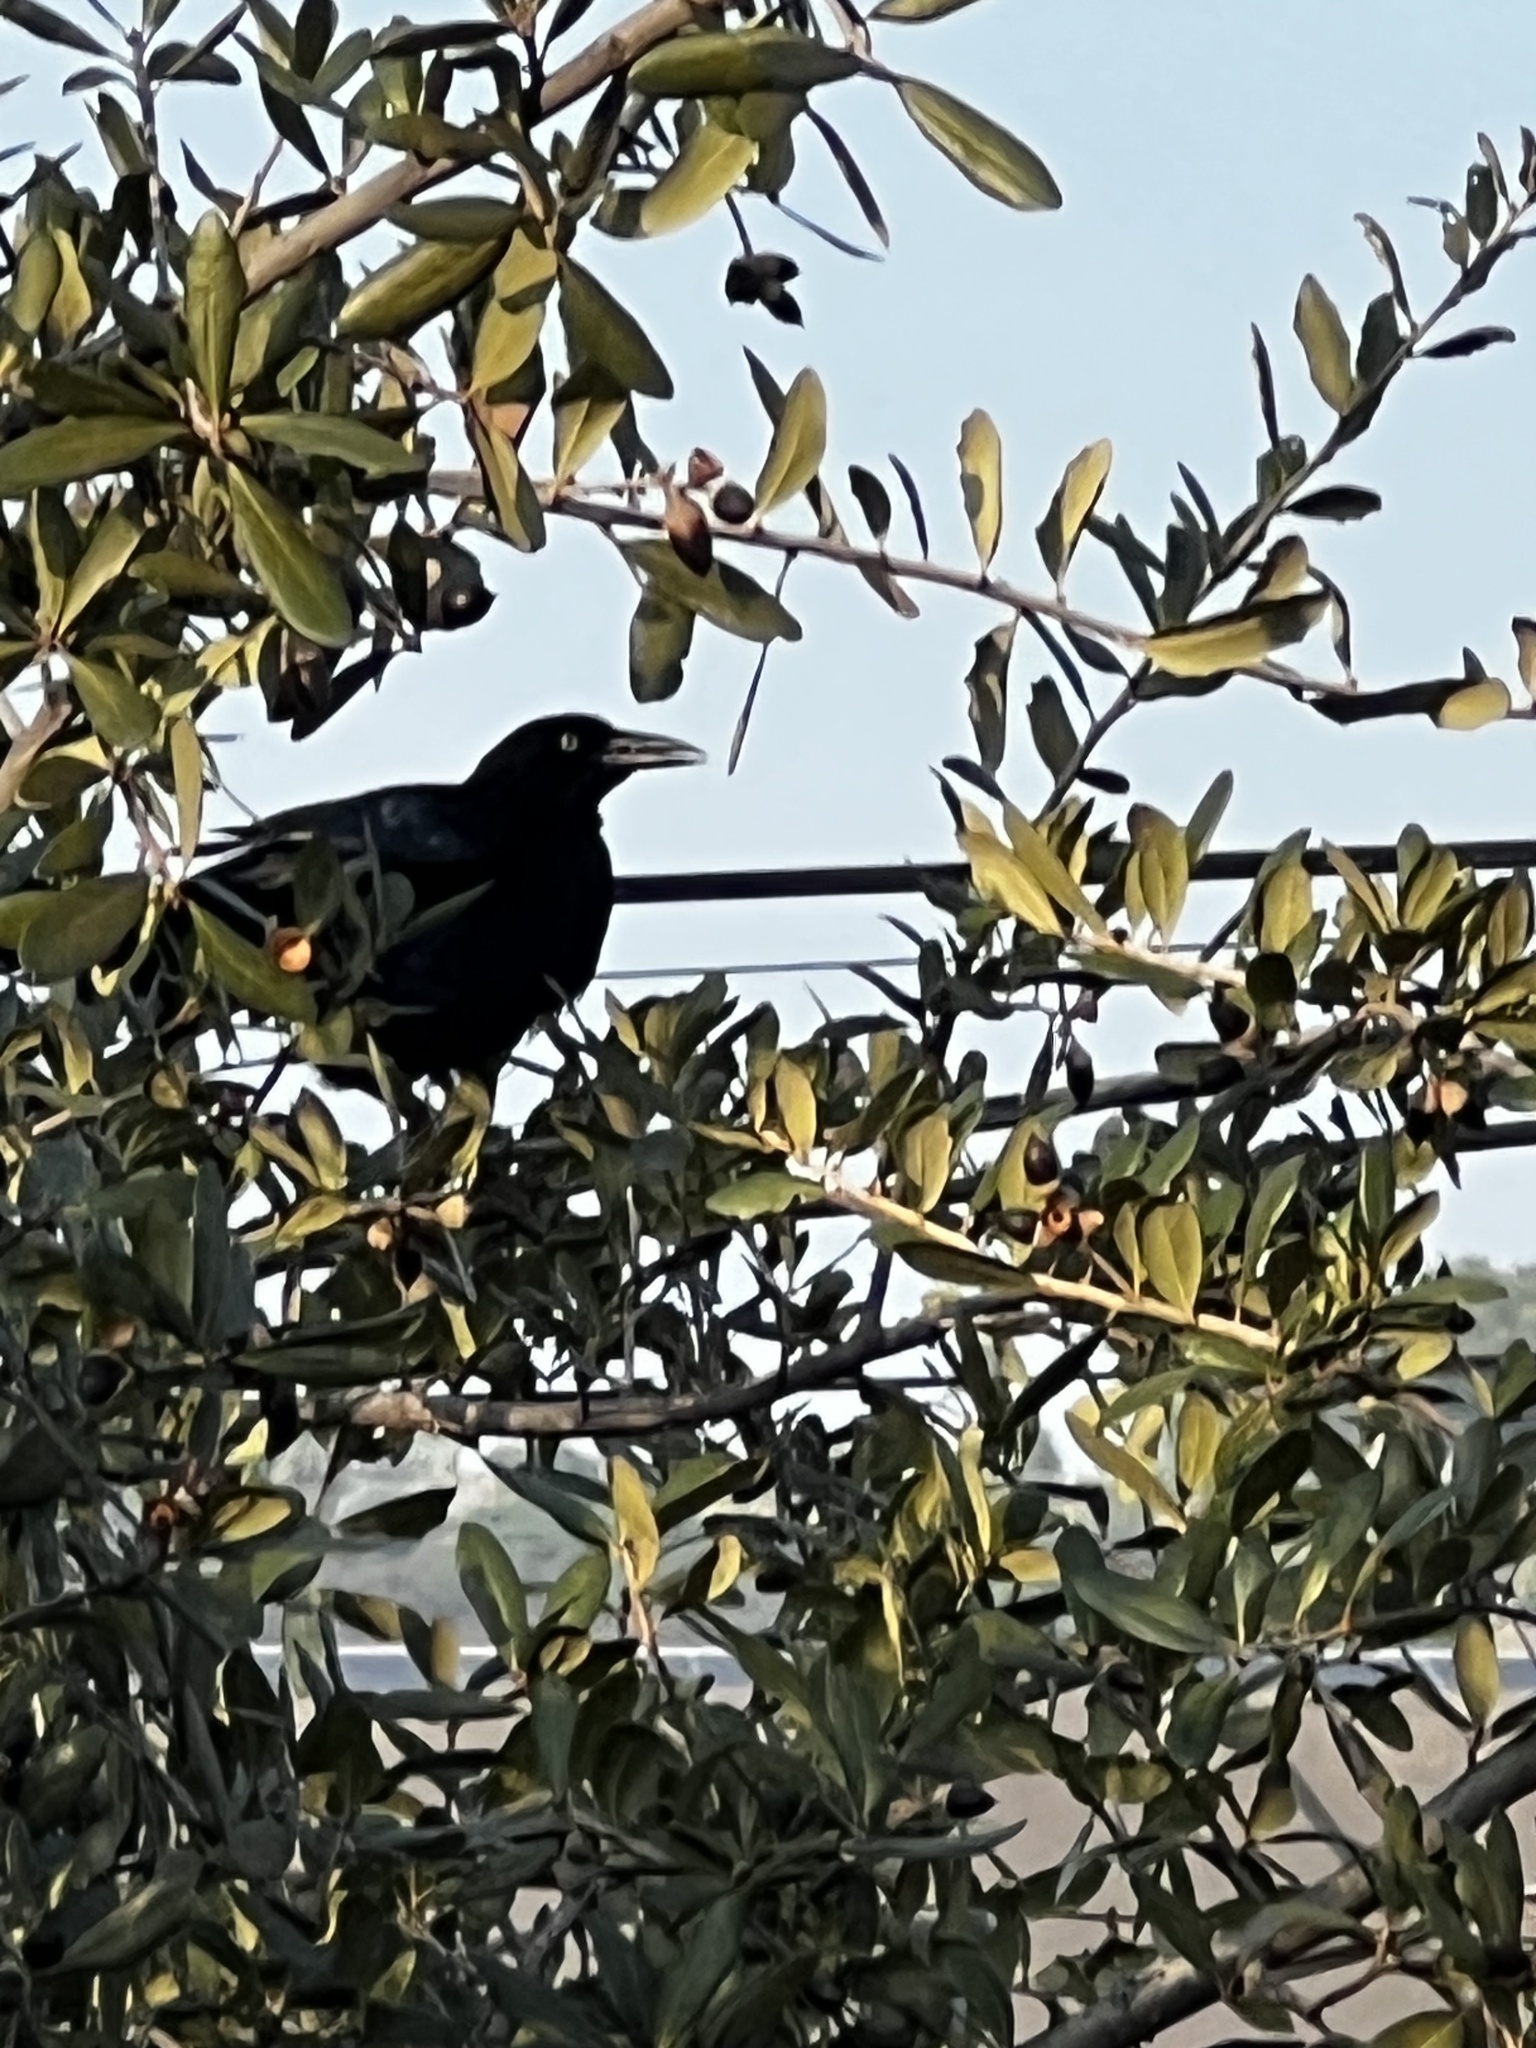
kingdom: Animalia
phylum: Chordata
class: Aves
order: Passeriformes
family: Icteridae
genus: Quiscalus
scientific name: Quiscalus mexicanus
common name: Great-tailed grackle
